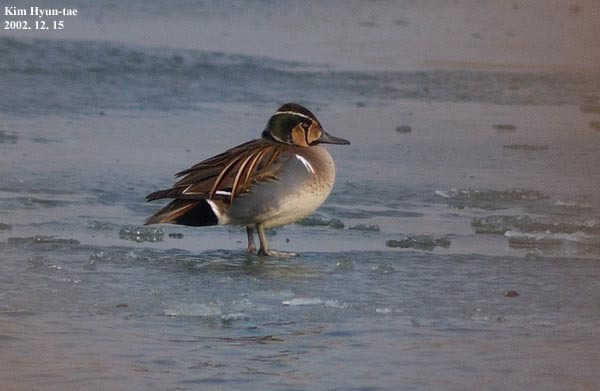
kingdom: Animalia
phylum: Chordata
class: Aves
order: Anseriformes
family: Anatidae
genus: Sibirionetta
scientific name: Sibirionetta formosa
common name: Baikal teal
